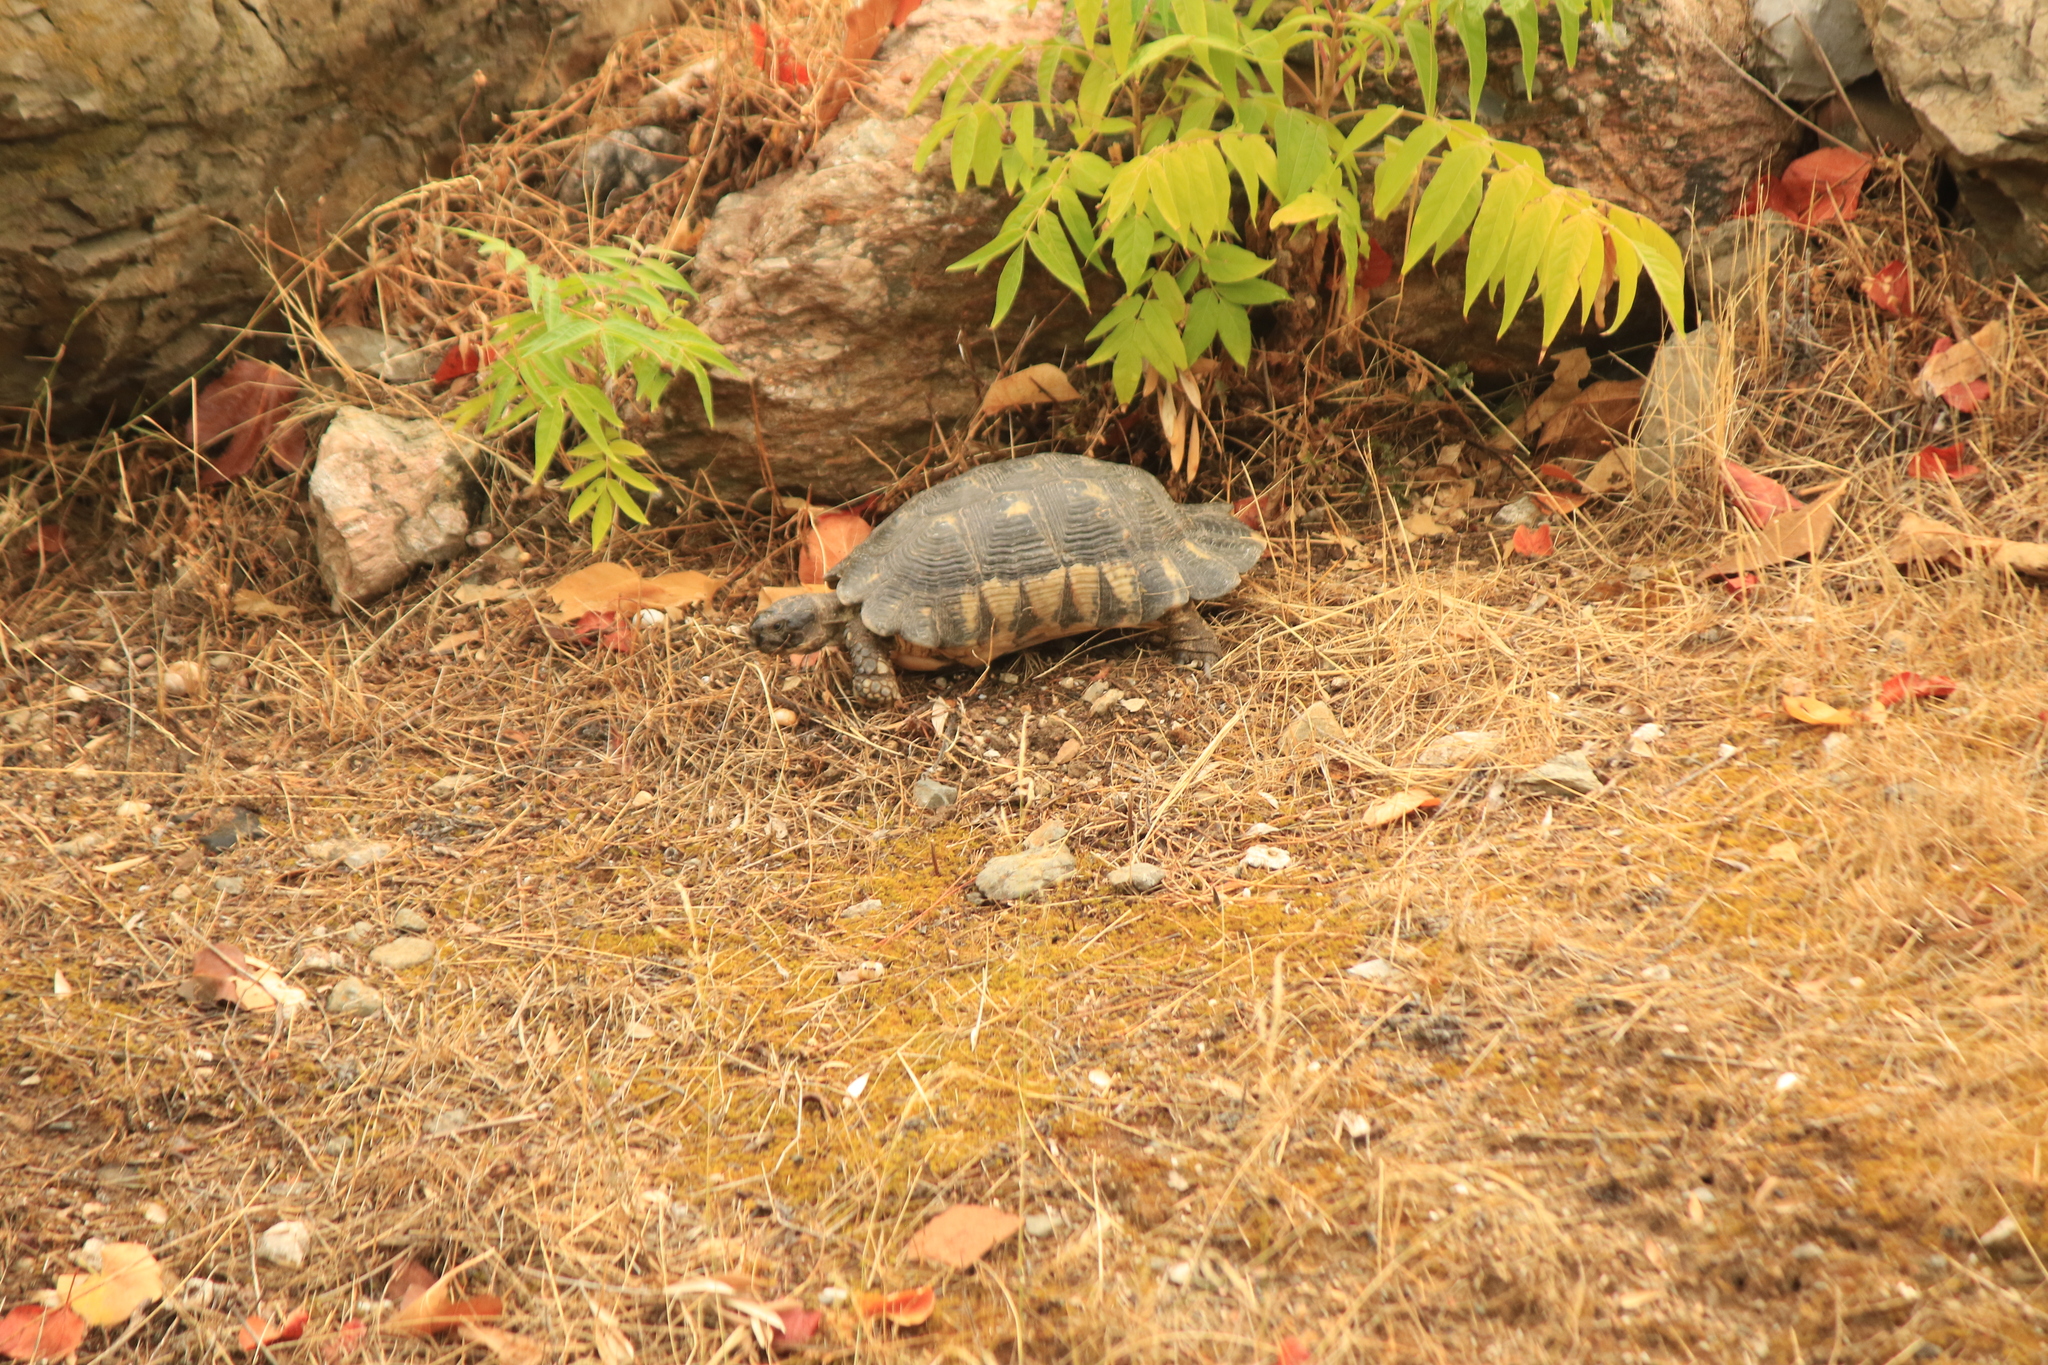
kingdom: Animalia
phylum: Chordata
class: Testudines
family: Testudinidae
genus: Testudo
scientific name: Testudo marginata
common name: Marginated tortoise
